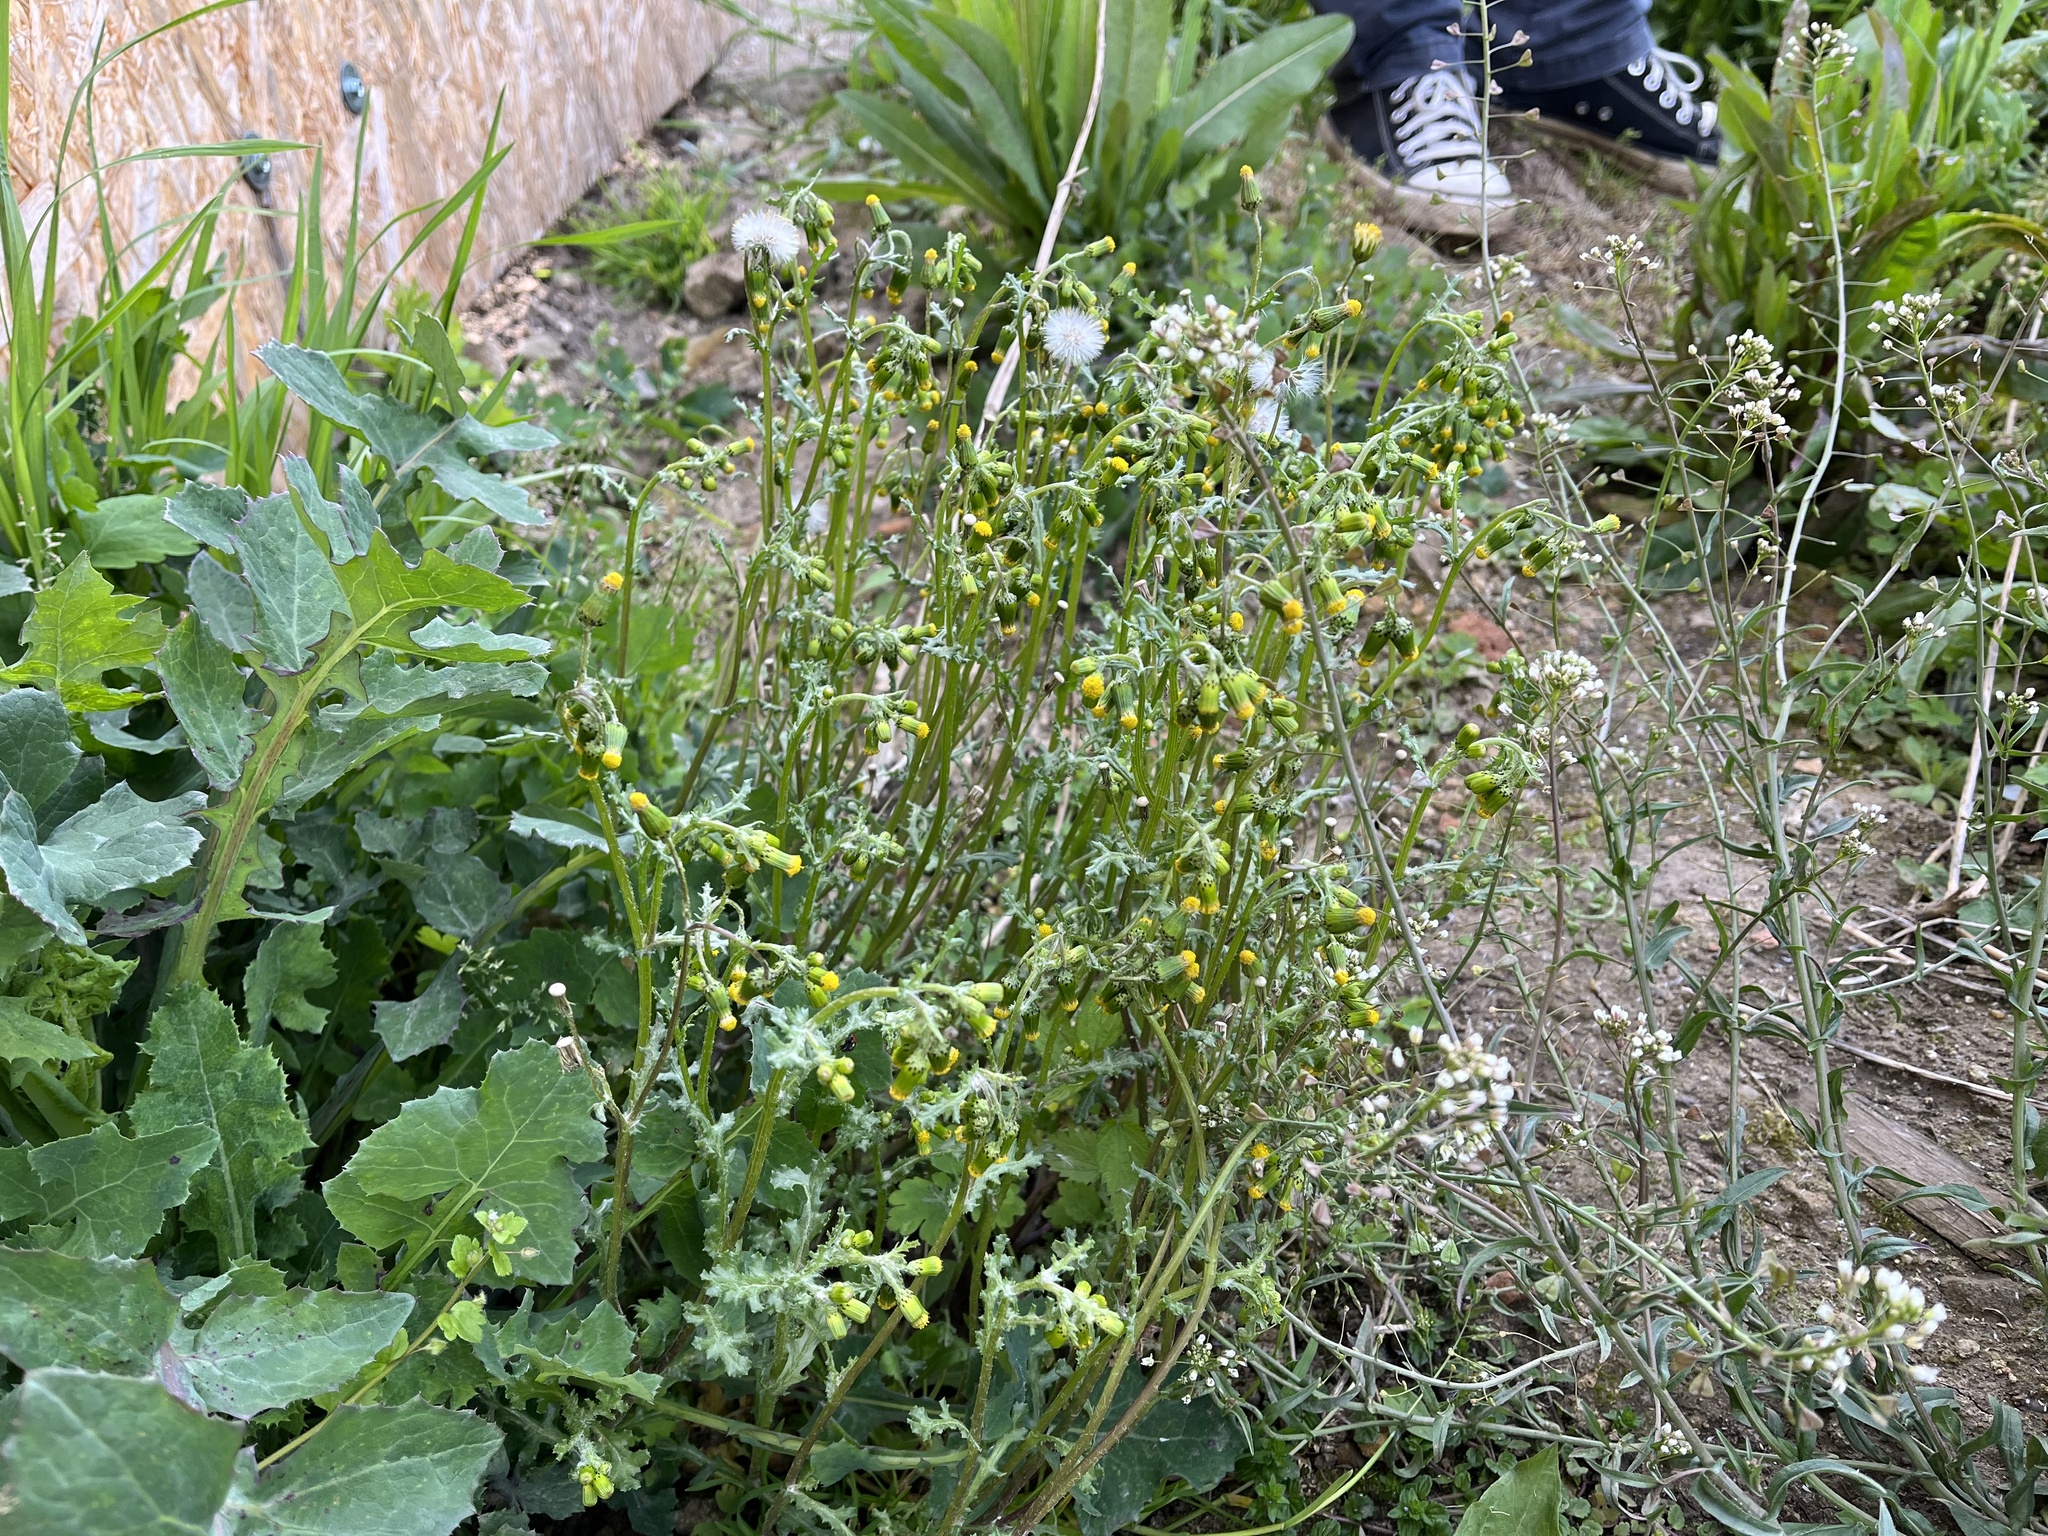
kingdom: Plantae
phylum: Tracheophyta
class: Magnoliopsida
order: Asterales
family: Asteraceae
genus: Senecio
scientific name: Senecio vulgaris
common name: Old-man-in-the-spring
